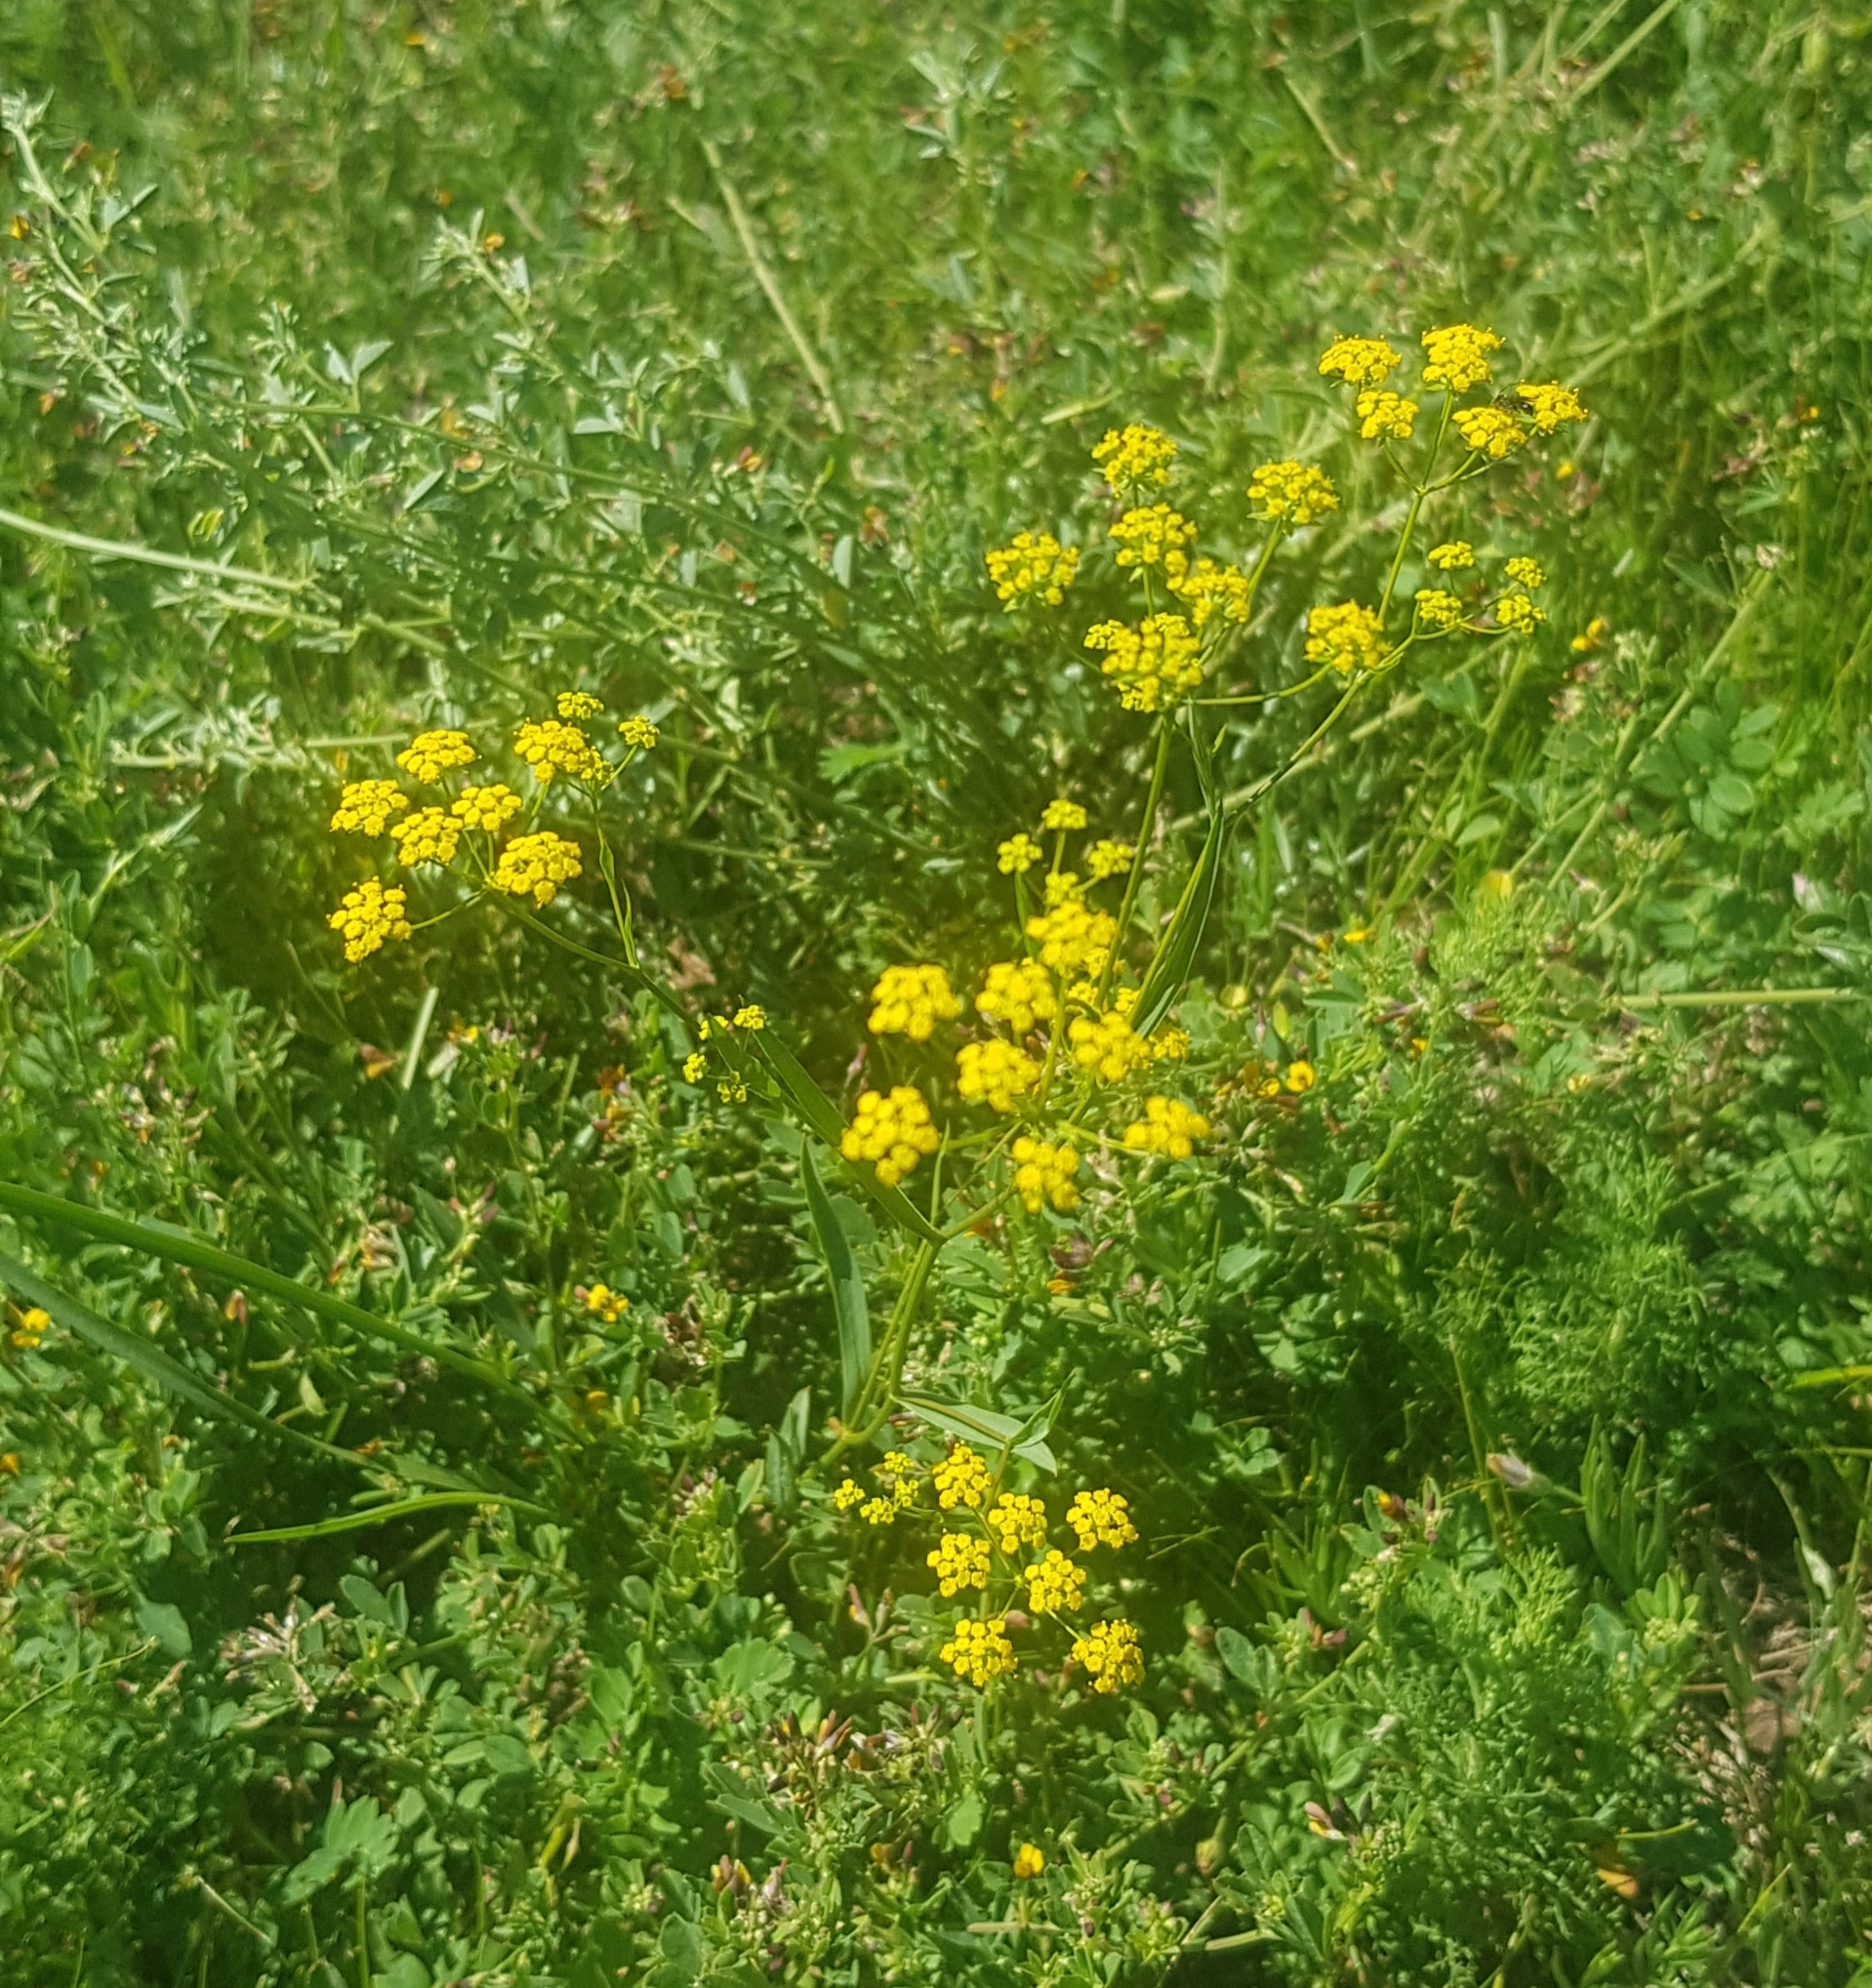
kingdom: Plantae
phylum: Tracheophyta
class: Magnoliopsida
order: Apiales
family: Apiaceae
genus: Bupleurum
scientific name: Bupleurum scorzonerifolium
